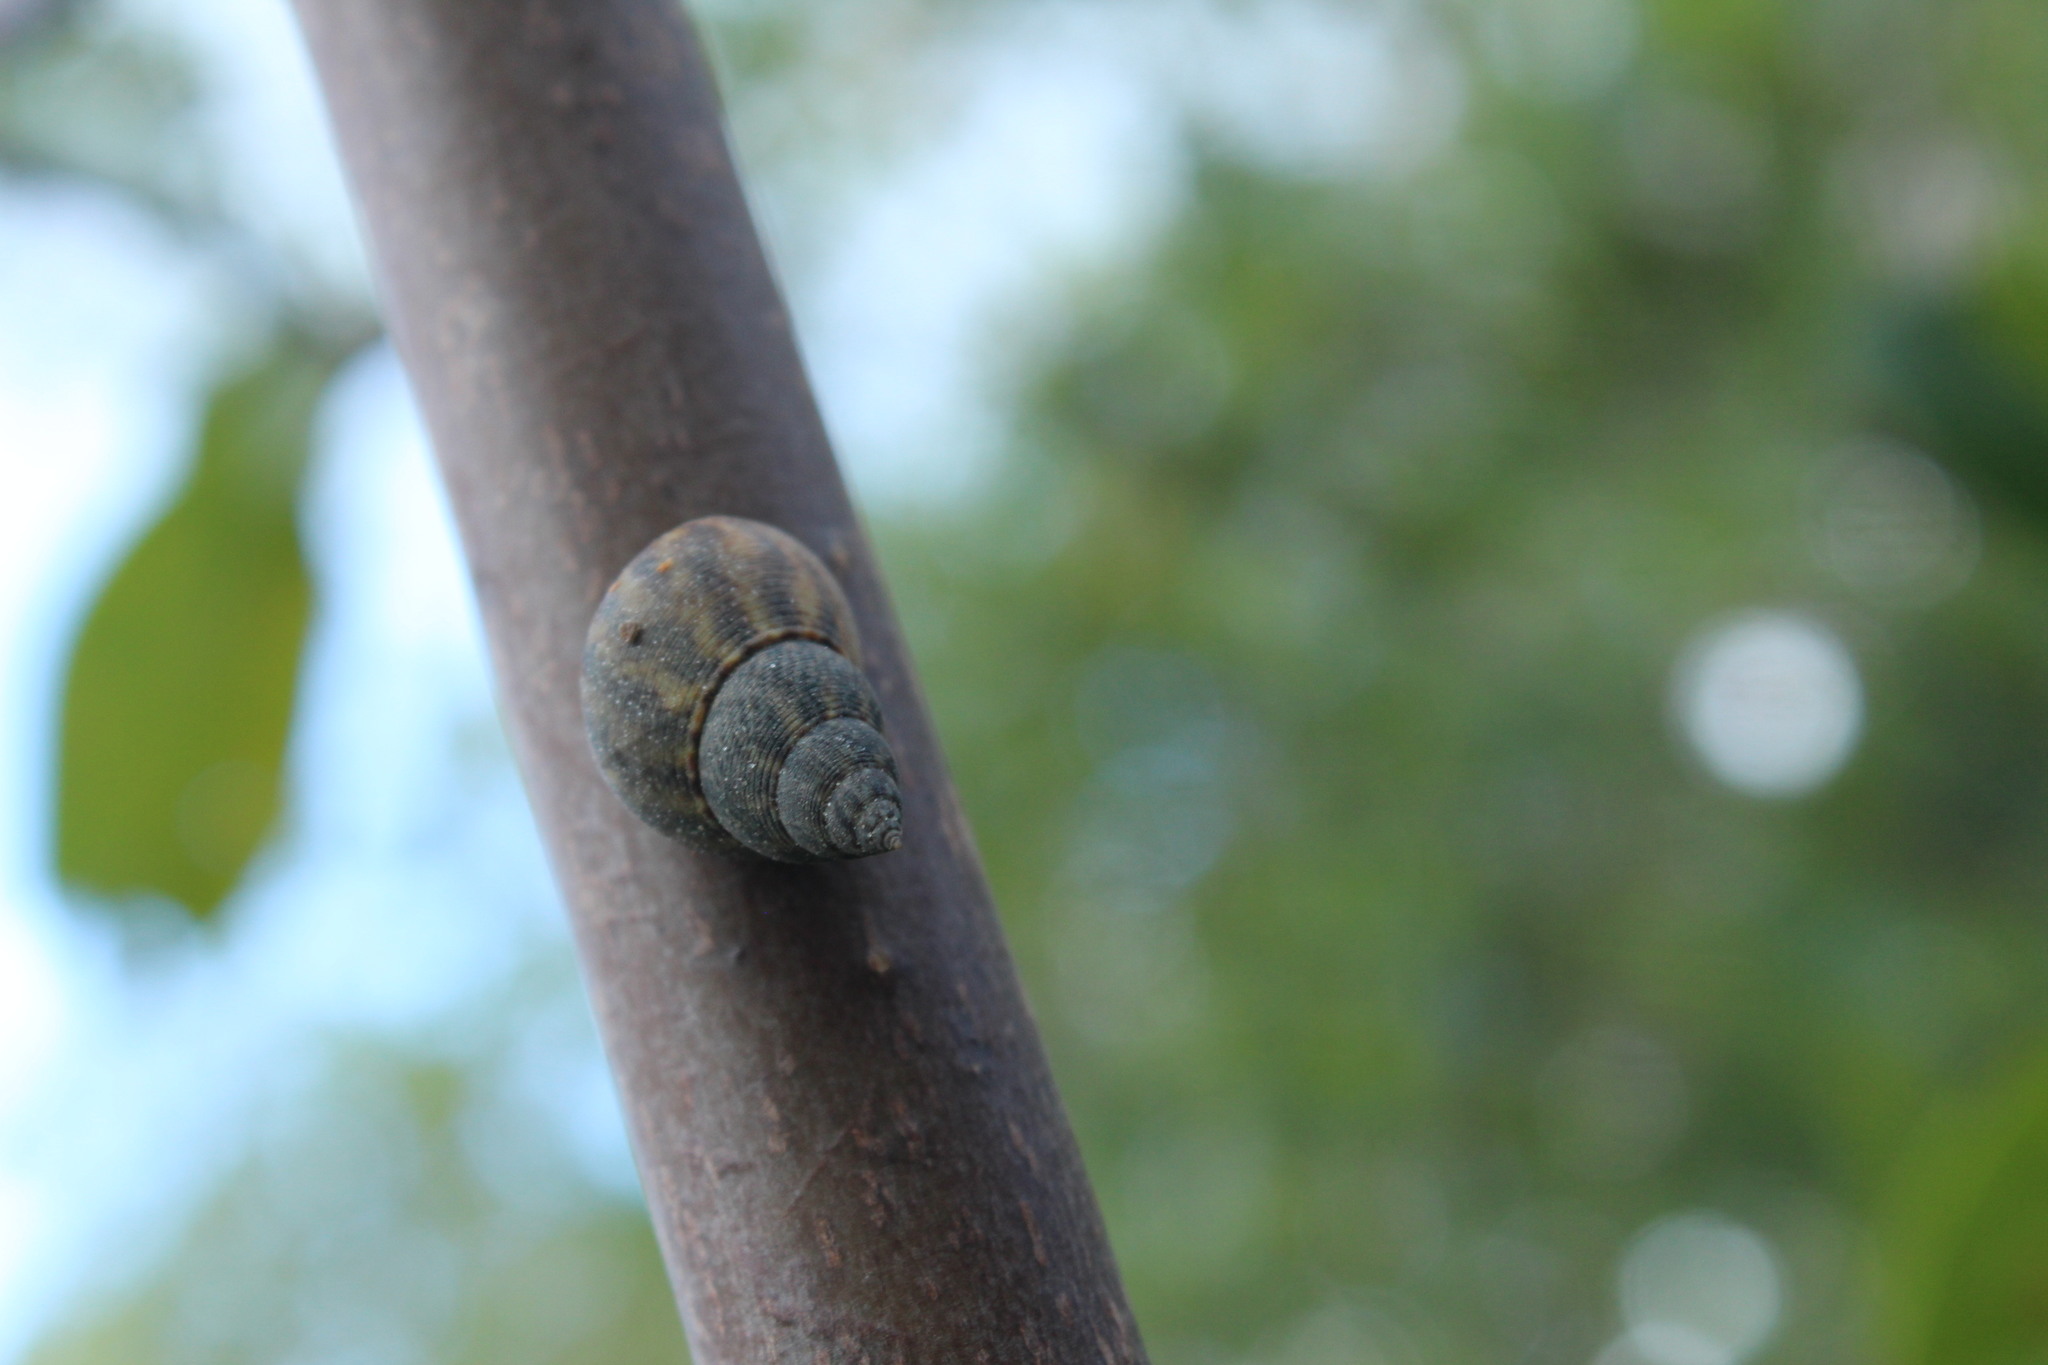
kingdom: Animalia
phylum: Mollusca
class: Gastropoda
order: Littorinimorpha
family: Littorinidae
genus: Littoraria
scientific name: Littoraria angulifera
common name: Mangrove periwinkle
